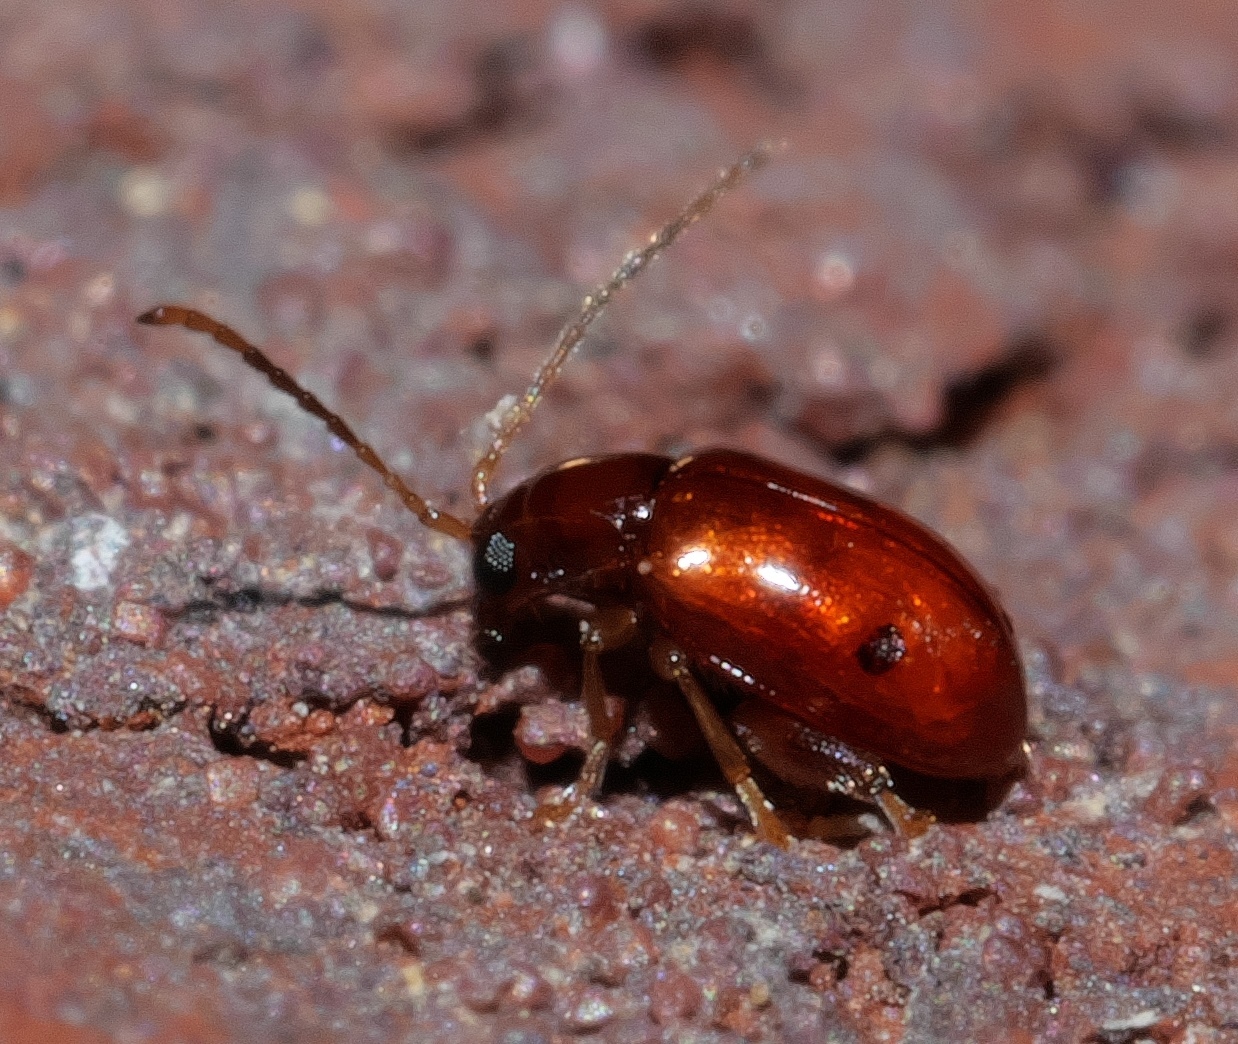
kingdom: Animalia
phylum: Arthropoda
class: Insecta
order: Coleoptera
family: Chrysomelidae
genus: Longitarsus
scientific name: Longitarsus varicornis
